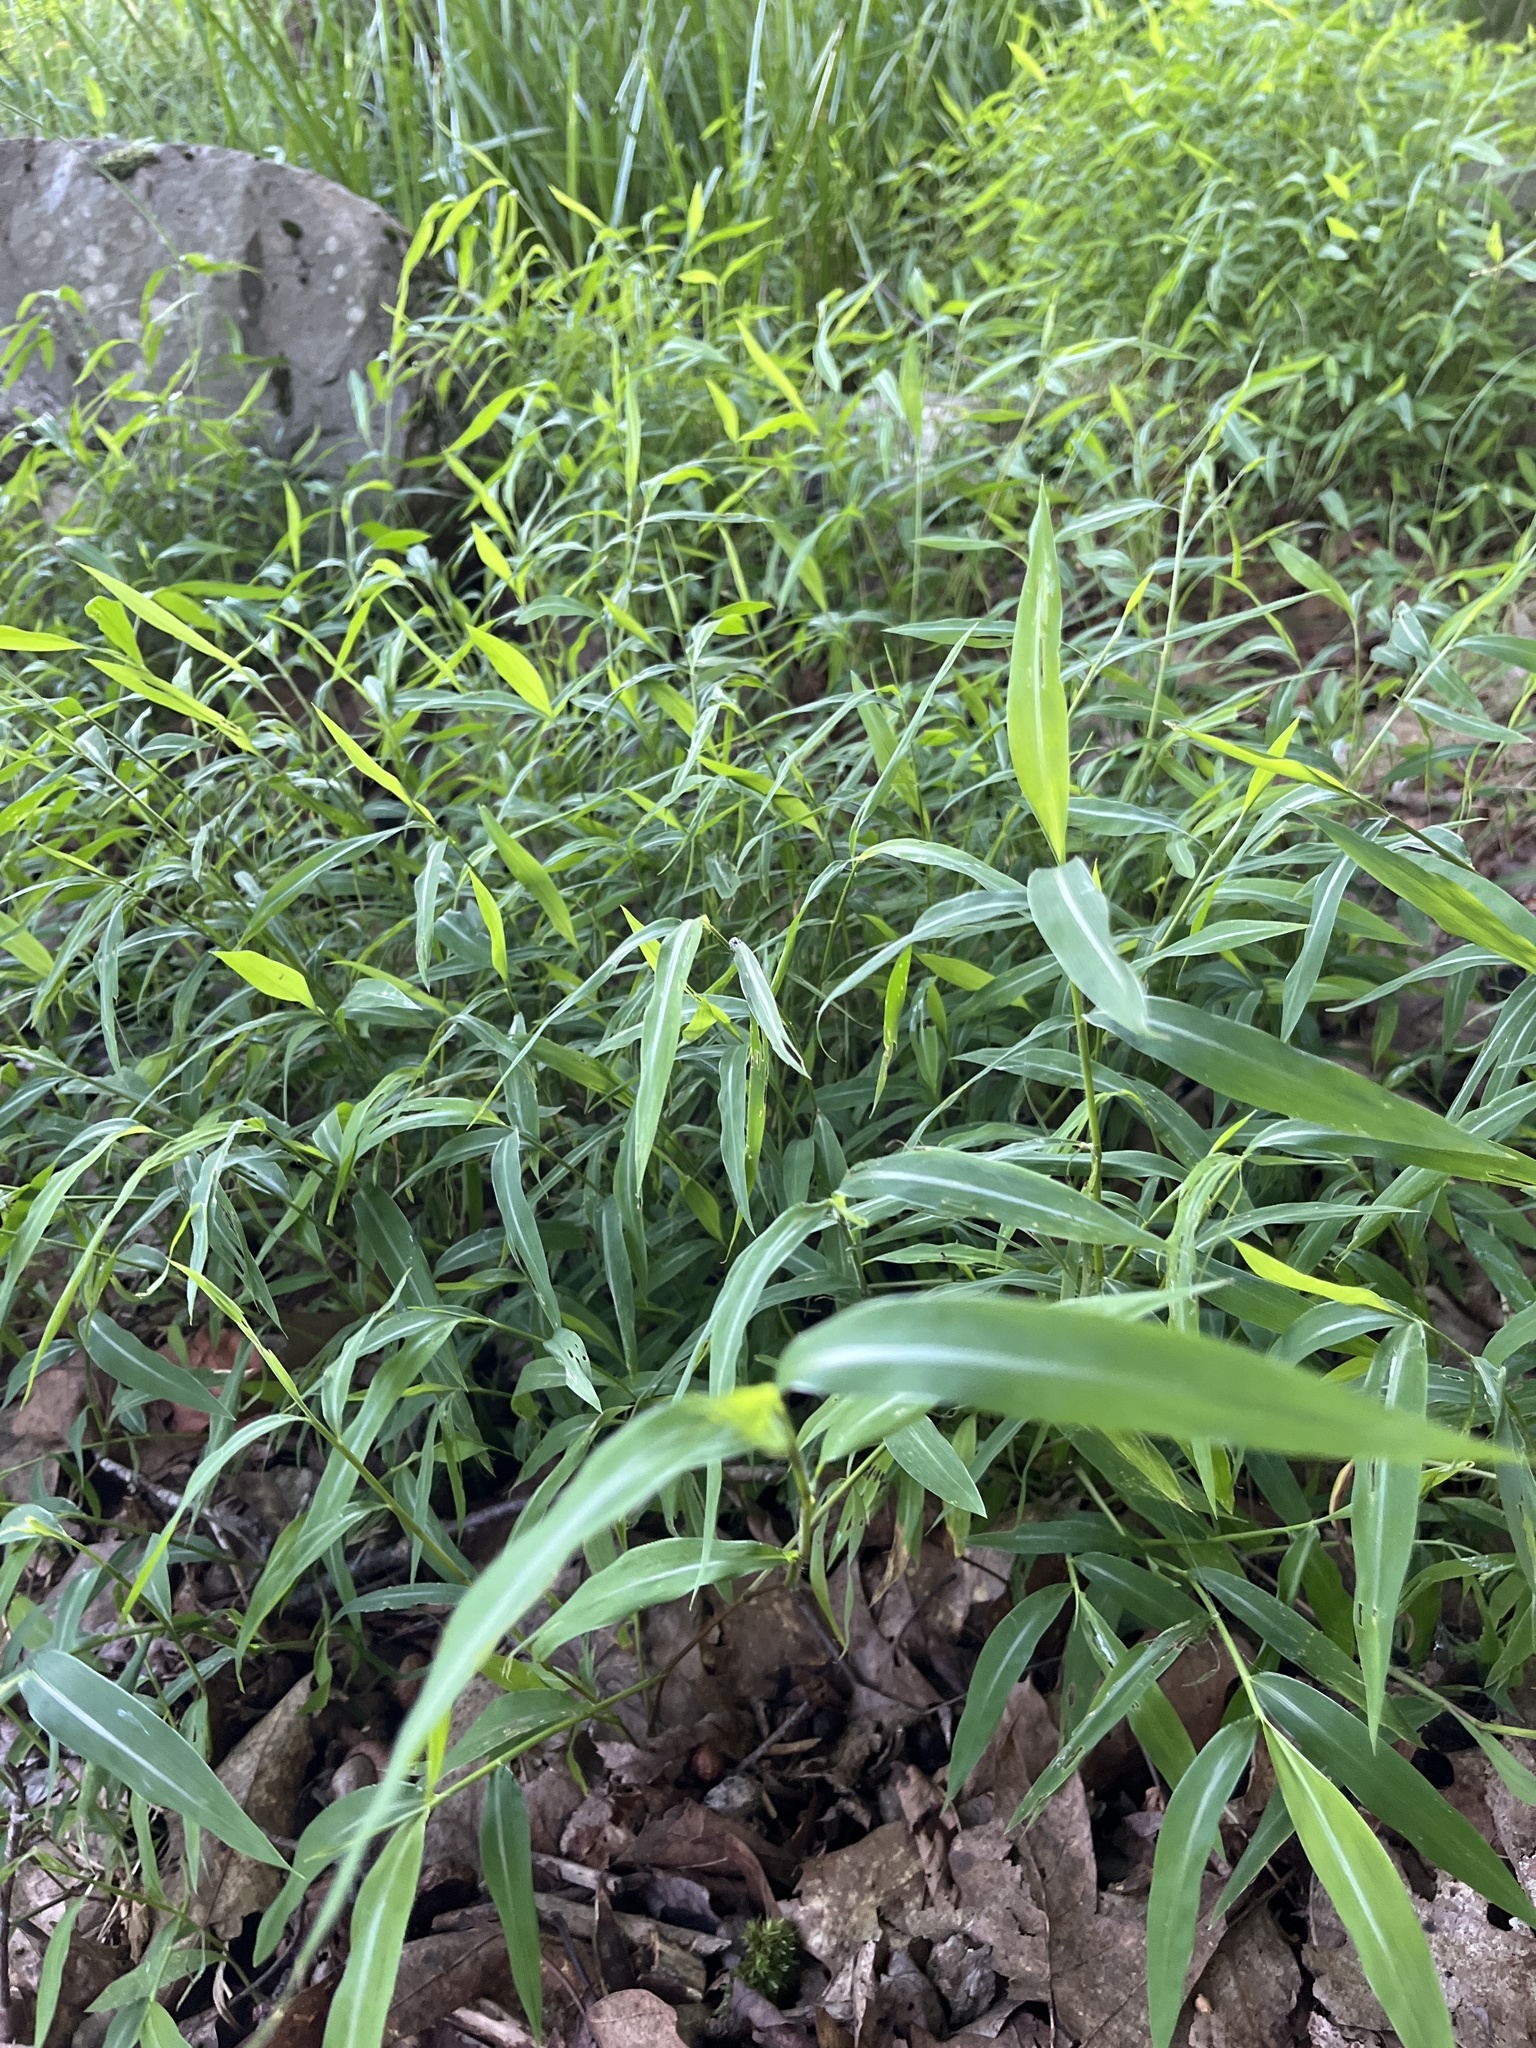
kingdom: Plantae
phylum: Tracheophyta
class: Liliopsida
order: Poales
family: Poaceae
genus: Microstegium
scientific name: Microstegium vimineum
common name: Japanese stiltgrass
